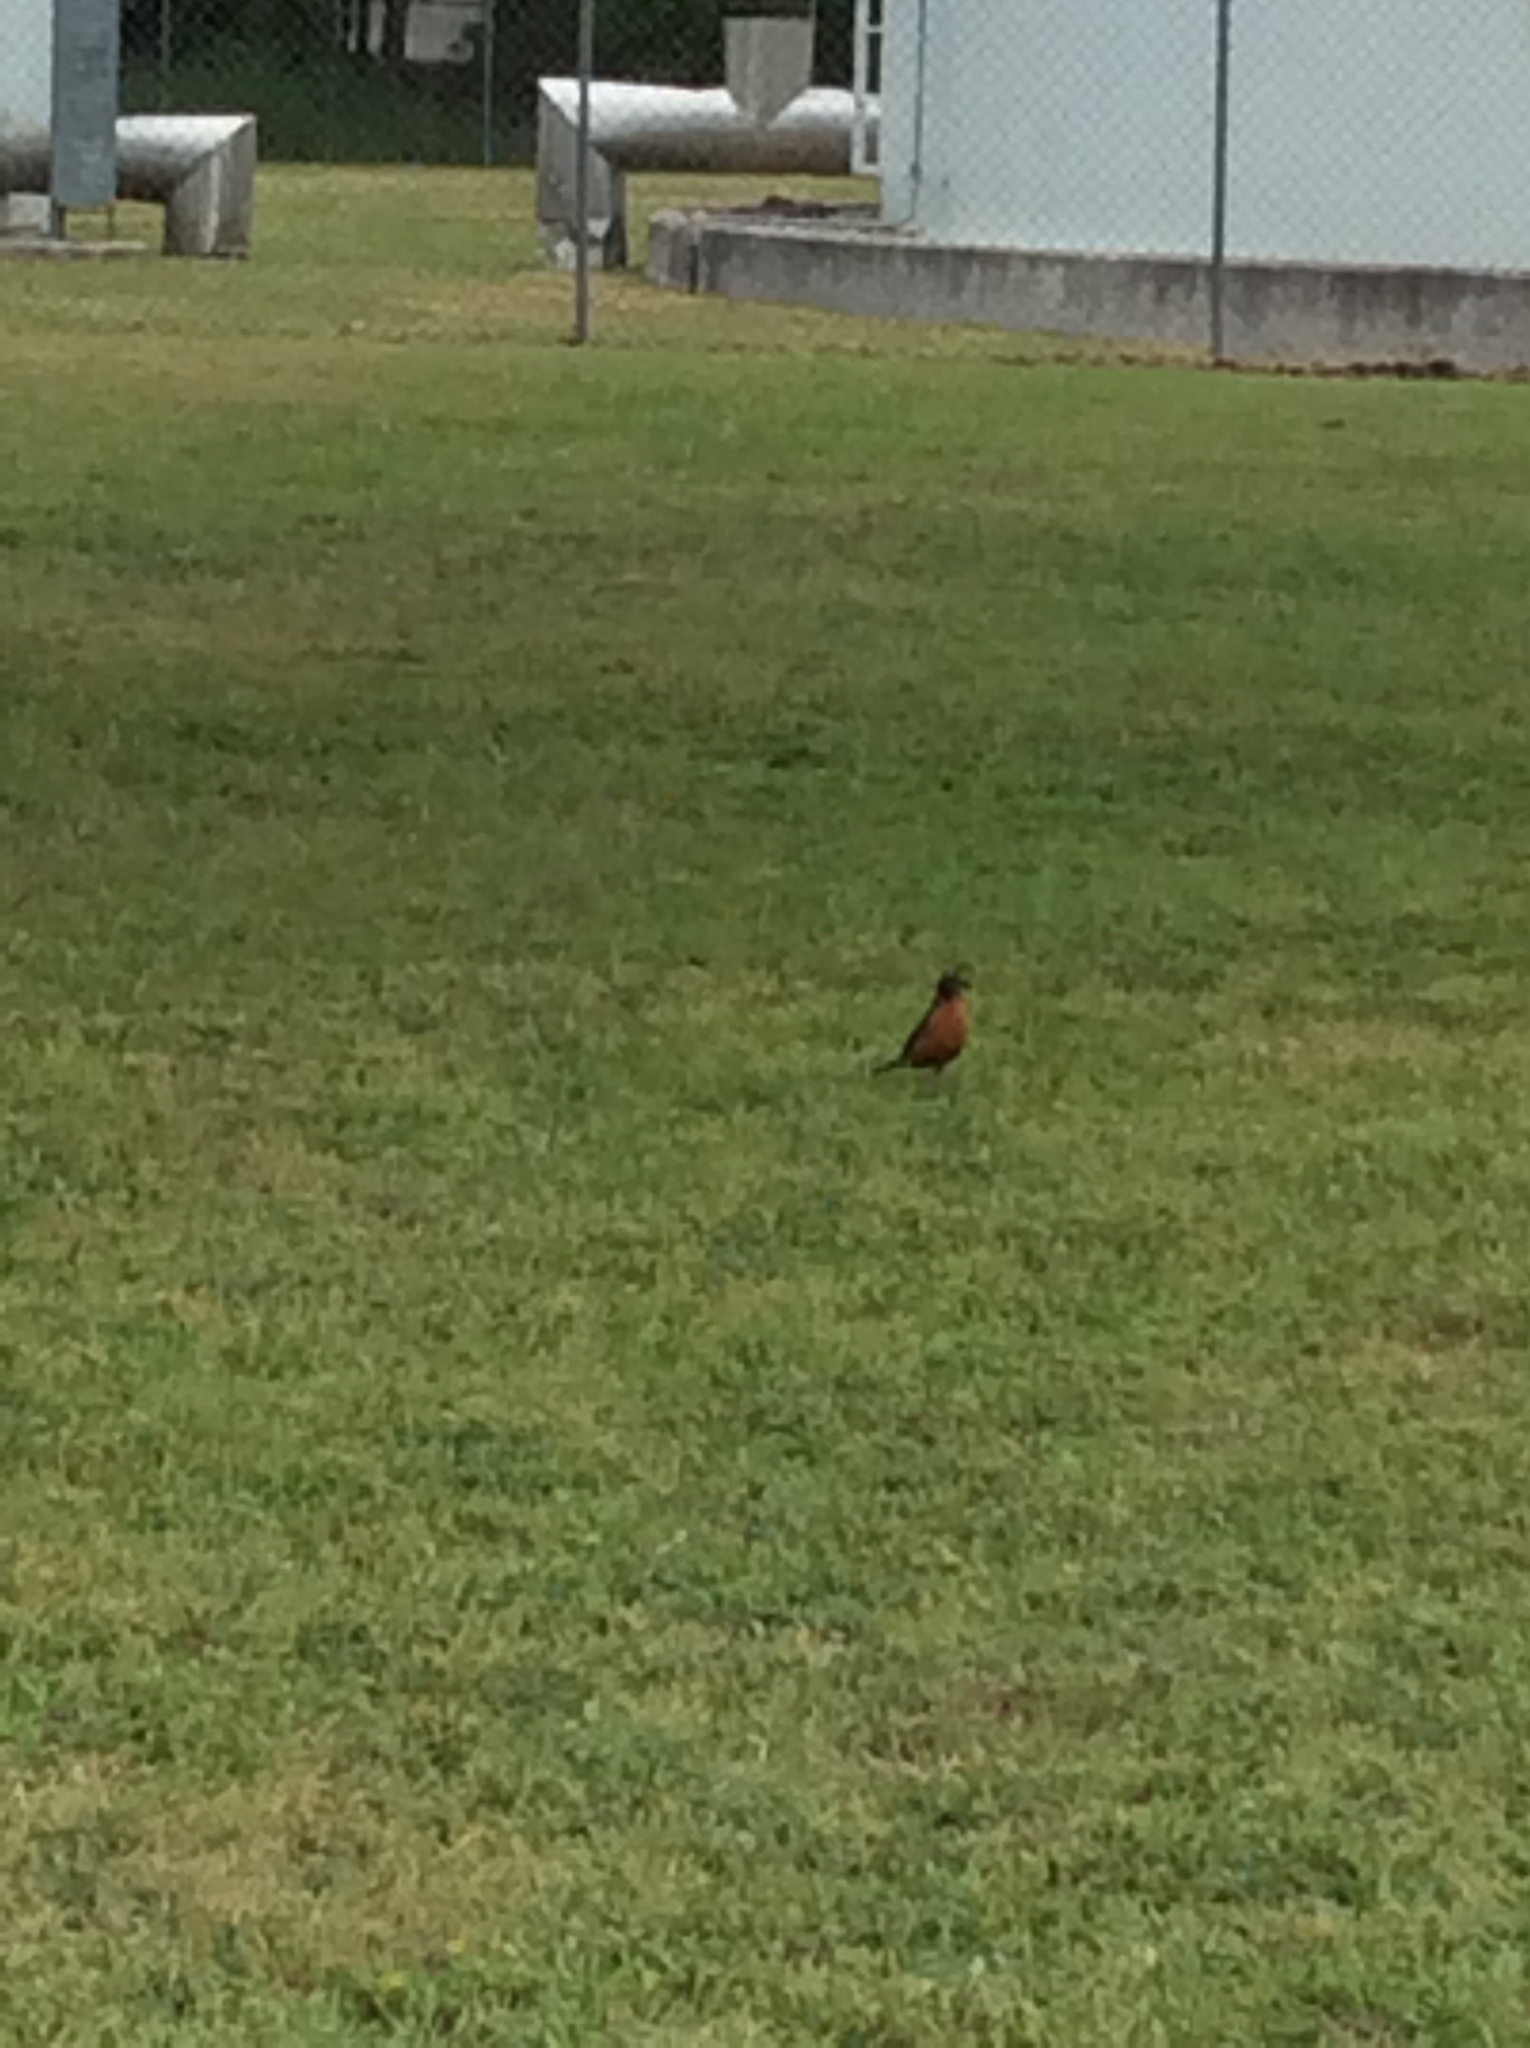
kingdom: Animalia
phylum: Chordata
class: Aves
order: Passeriformes
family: Turdidae
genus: Turdus
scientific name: Turdus migratorius
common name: American robin
